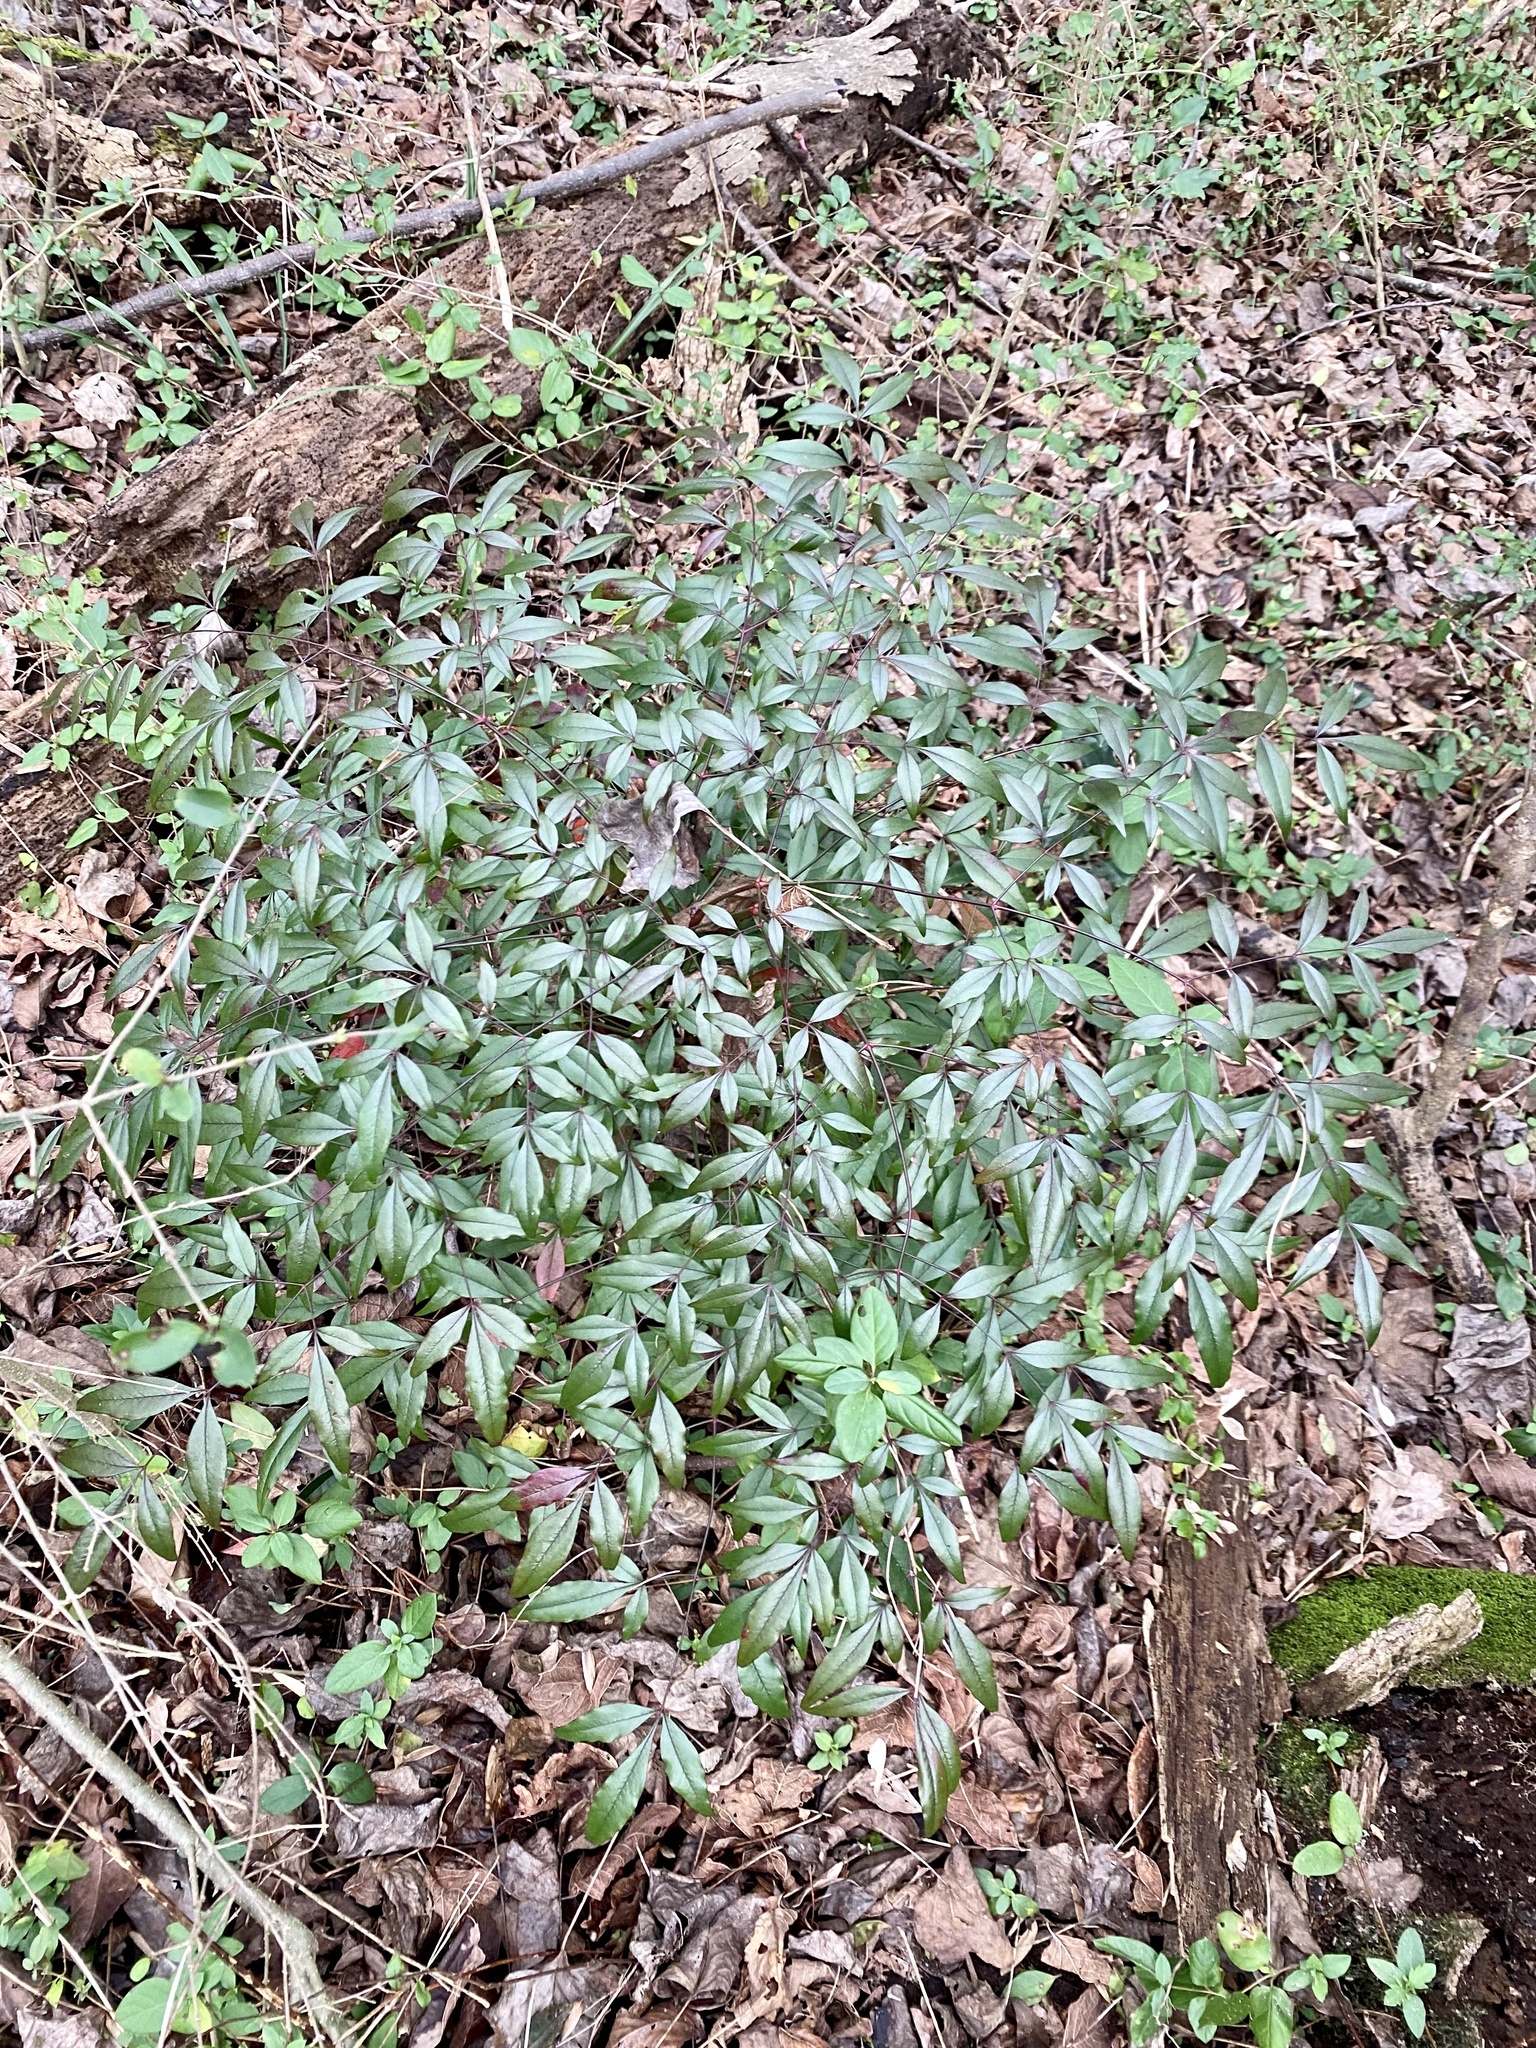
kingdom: Plantae
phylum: Tracheophyta
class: Magnoliopsida
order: Ranunculales
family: Berberidaceae
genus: Nandina
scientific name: Nandina domestica
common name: Sacred bamboo
